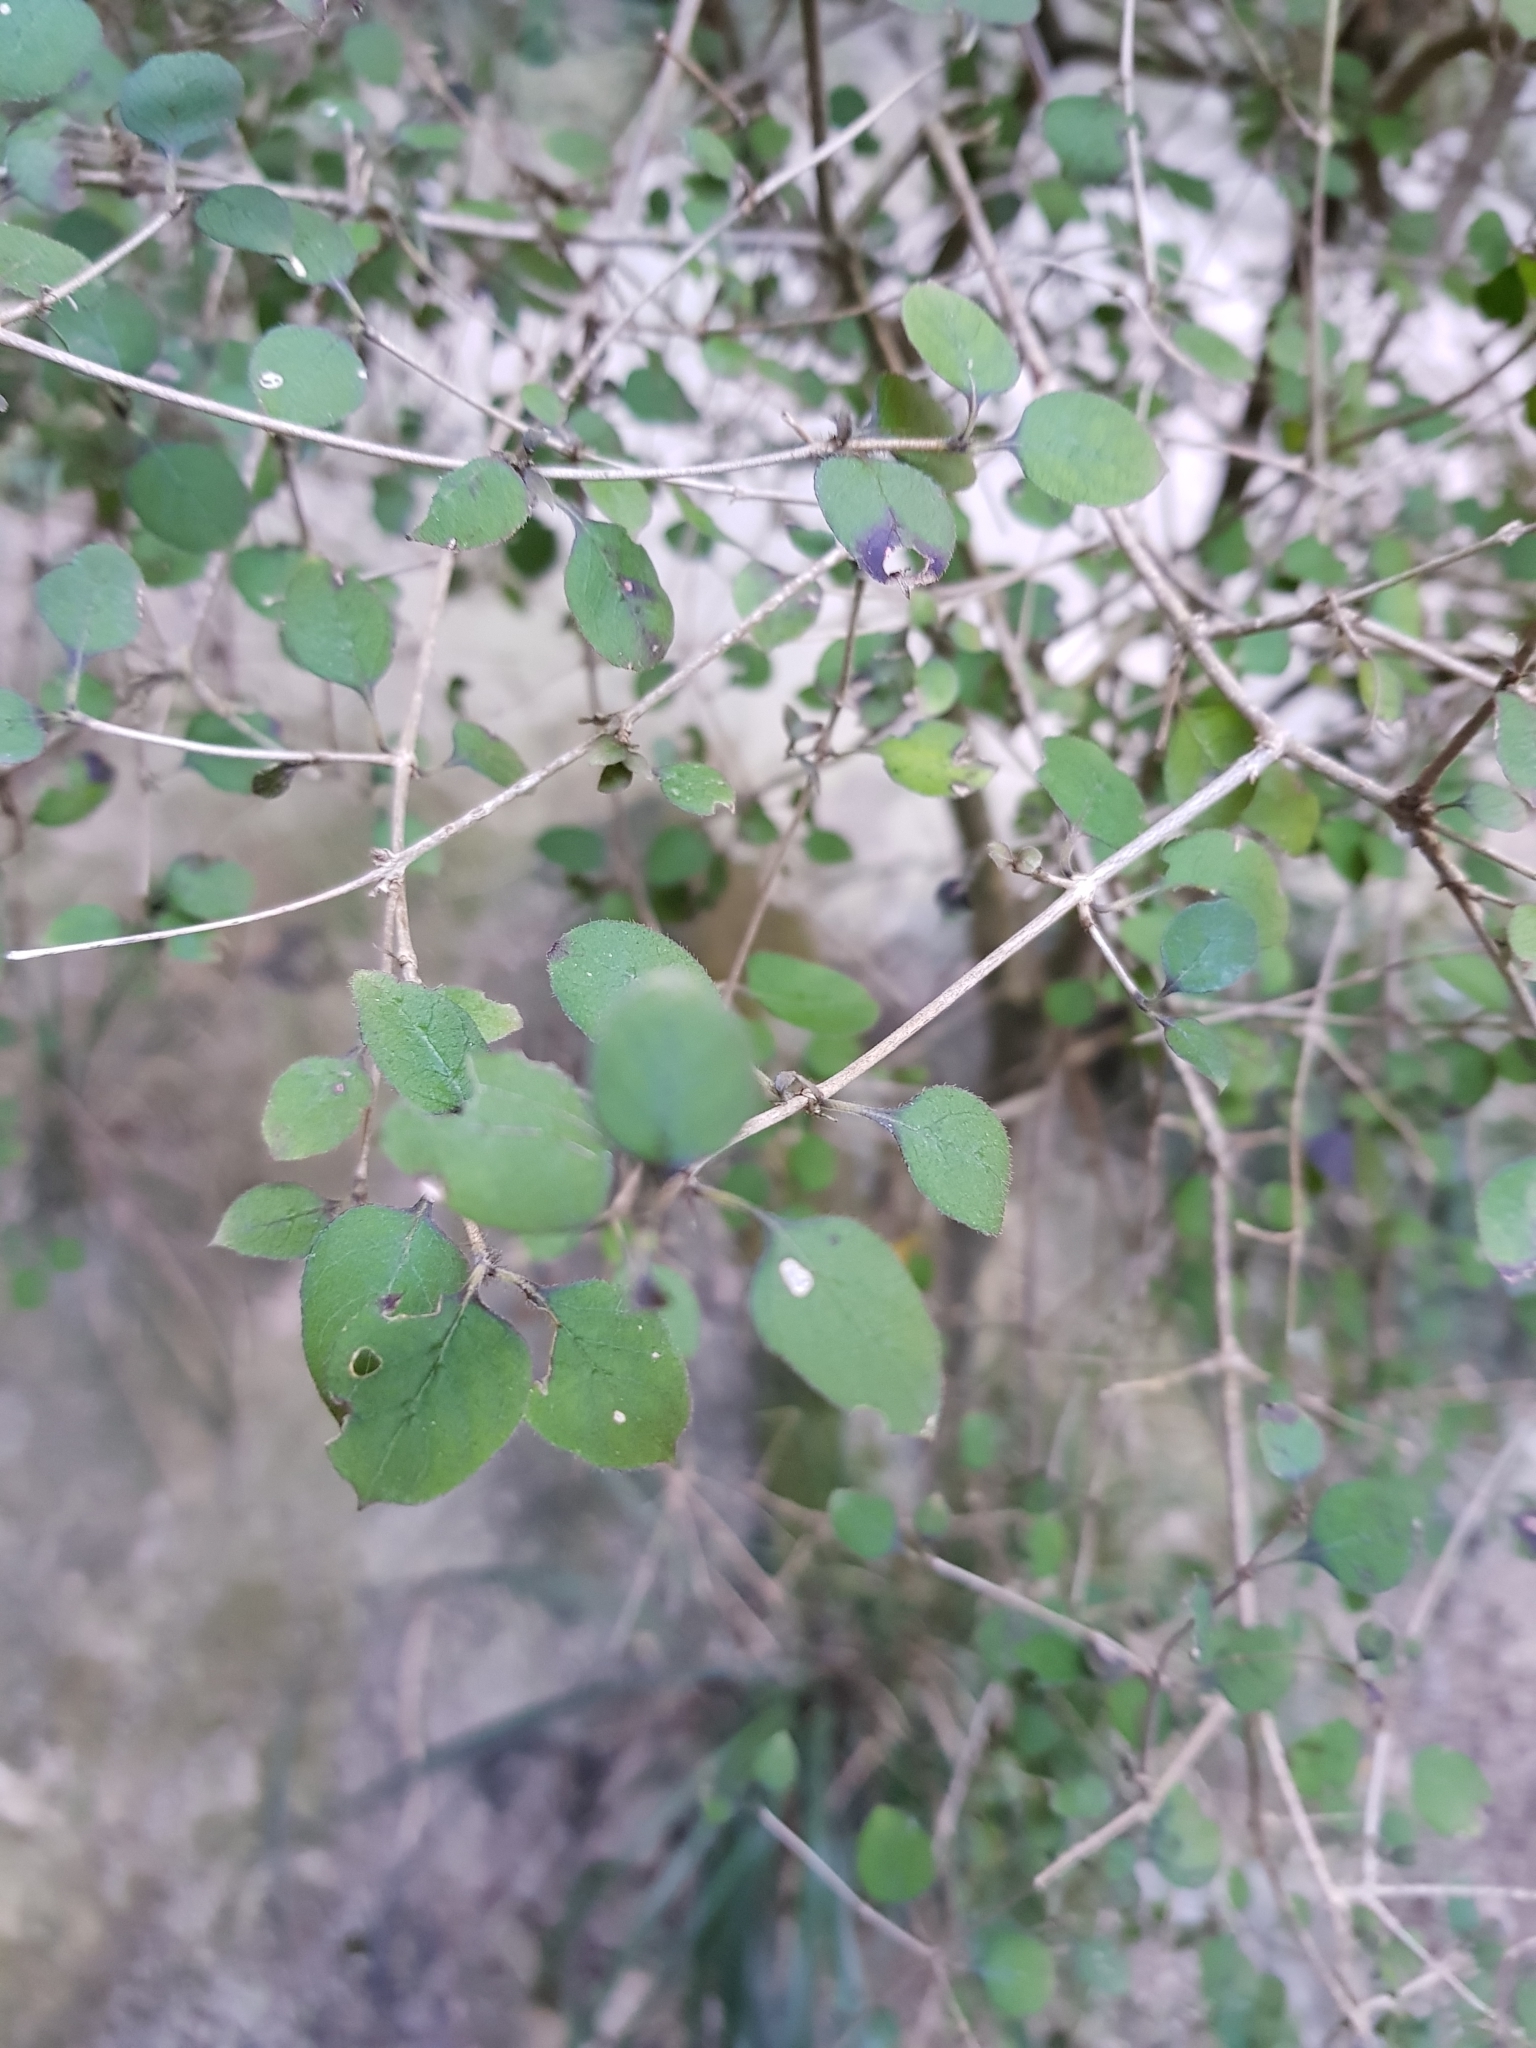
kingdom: Plantae
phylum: Tracheophyta
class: Magnoliopsida
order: Gentianales
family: Rubiaceae
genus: Coprosma
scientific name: Coprosma rotundifolia
